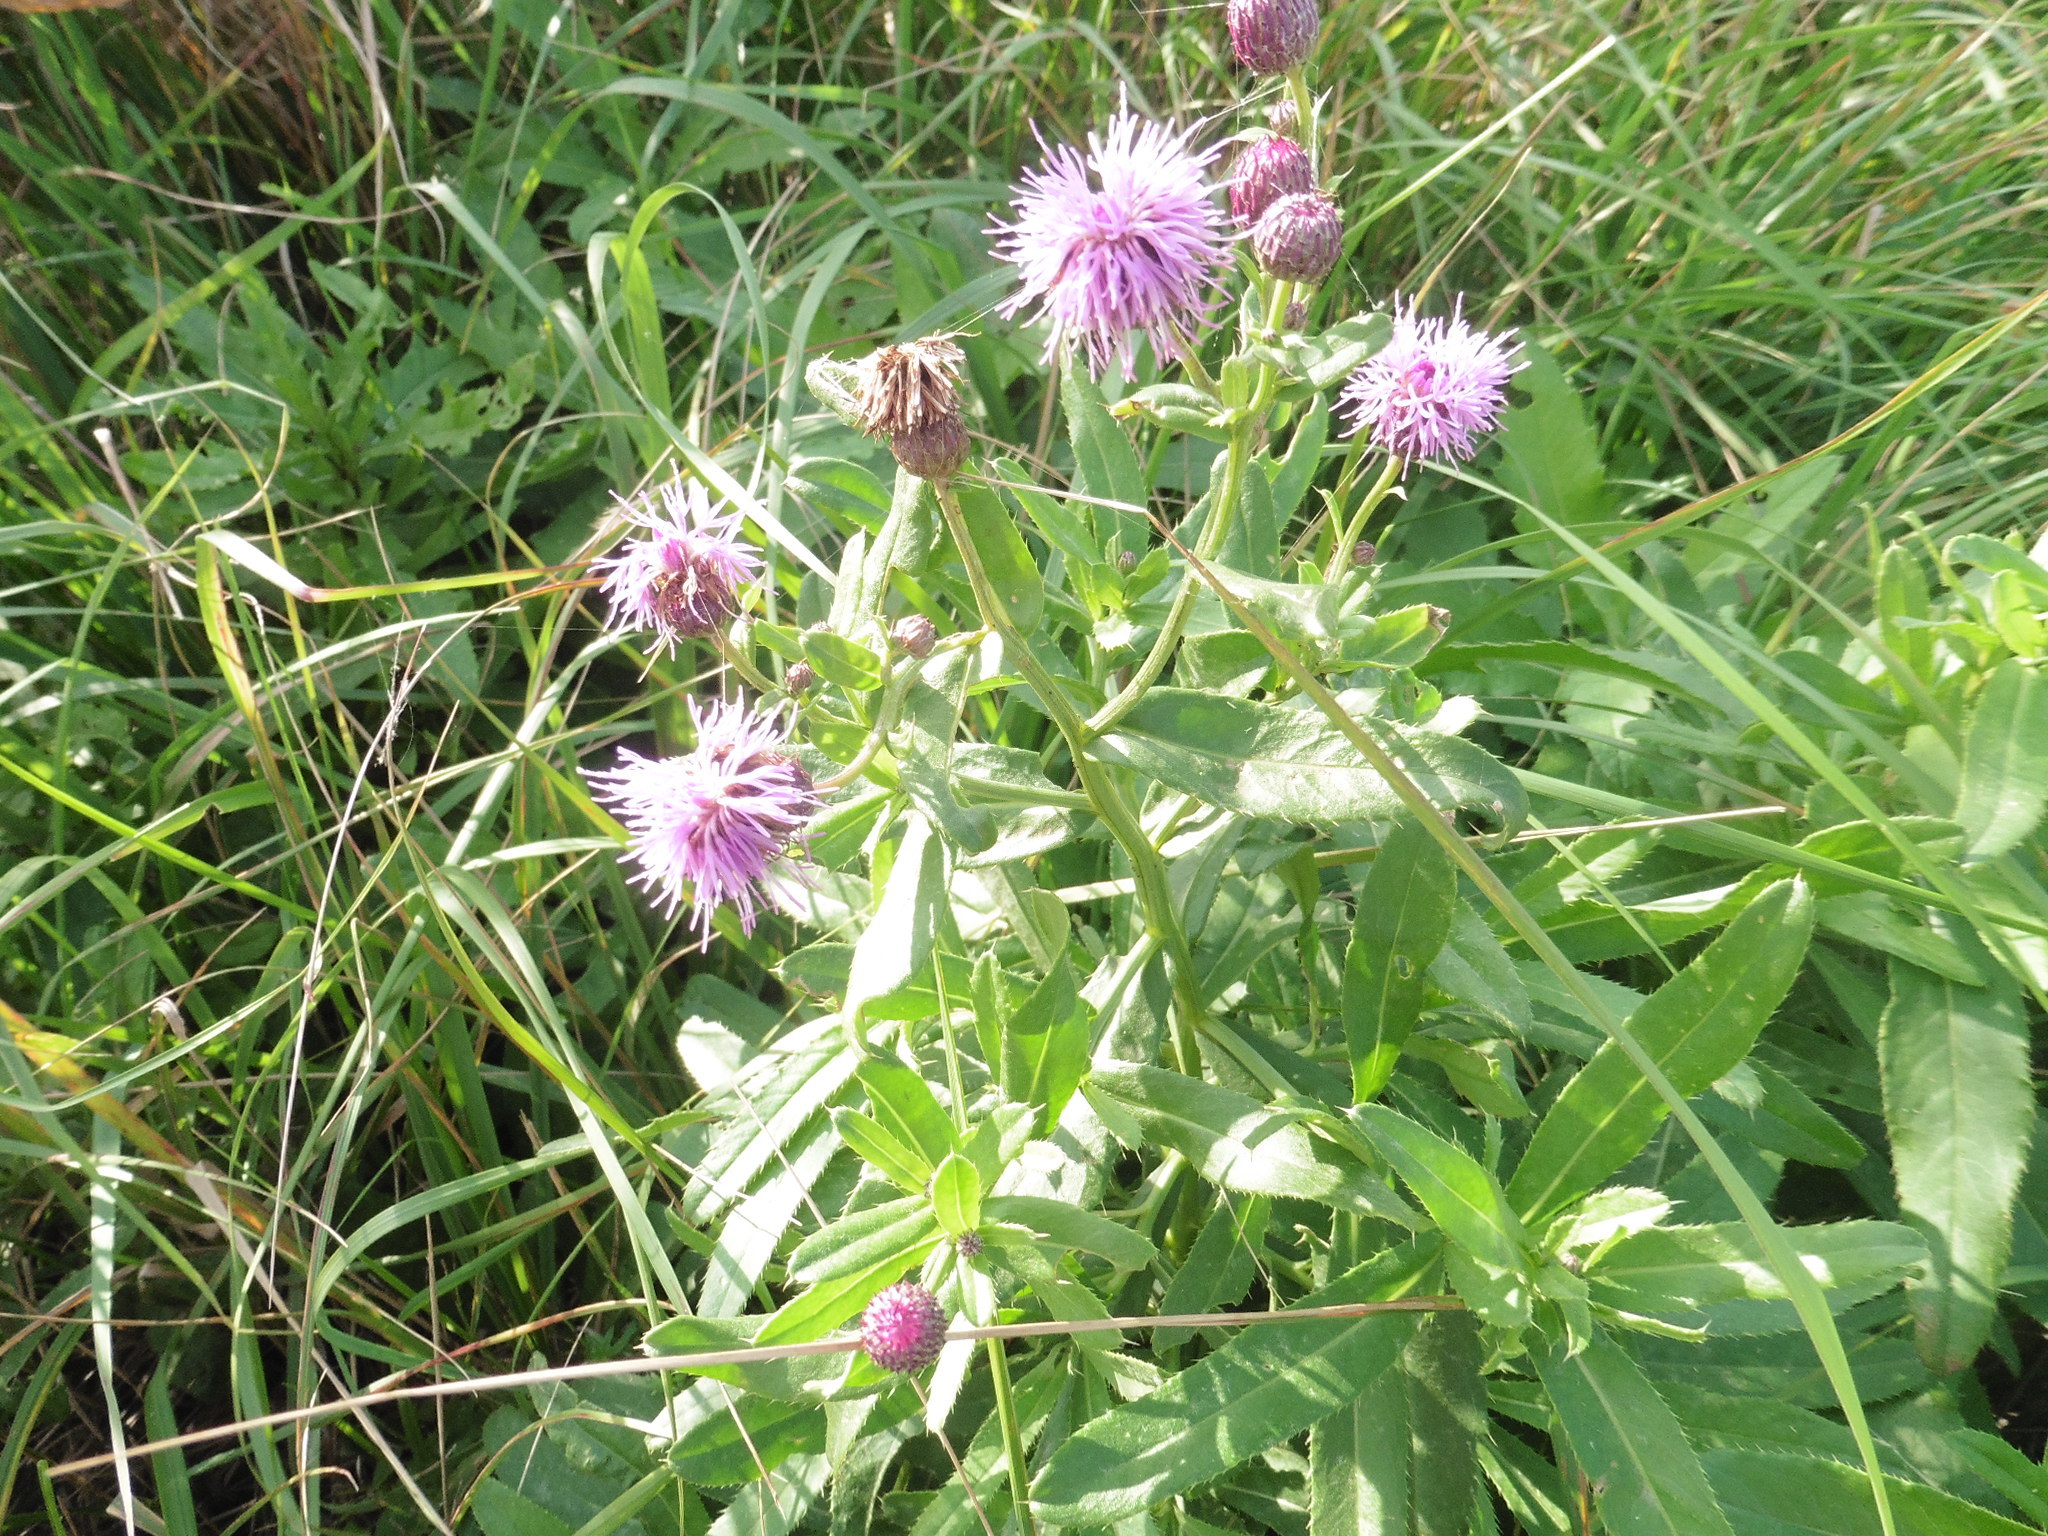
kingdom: Plantae
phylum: Tracheophyta
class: Magnoliopsida
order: Asterales
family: Asteraceae
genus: Cirsium
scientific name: Cirsium arvense
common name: Creeping thistle
